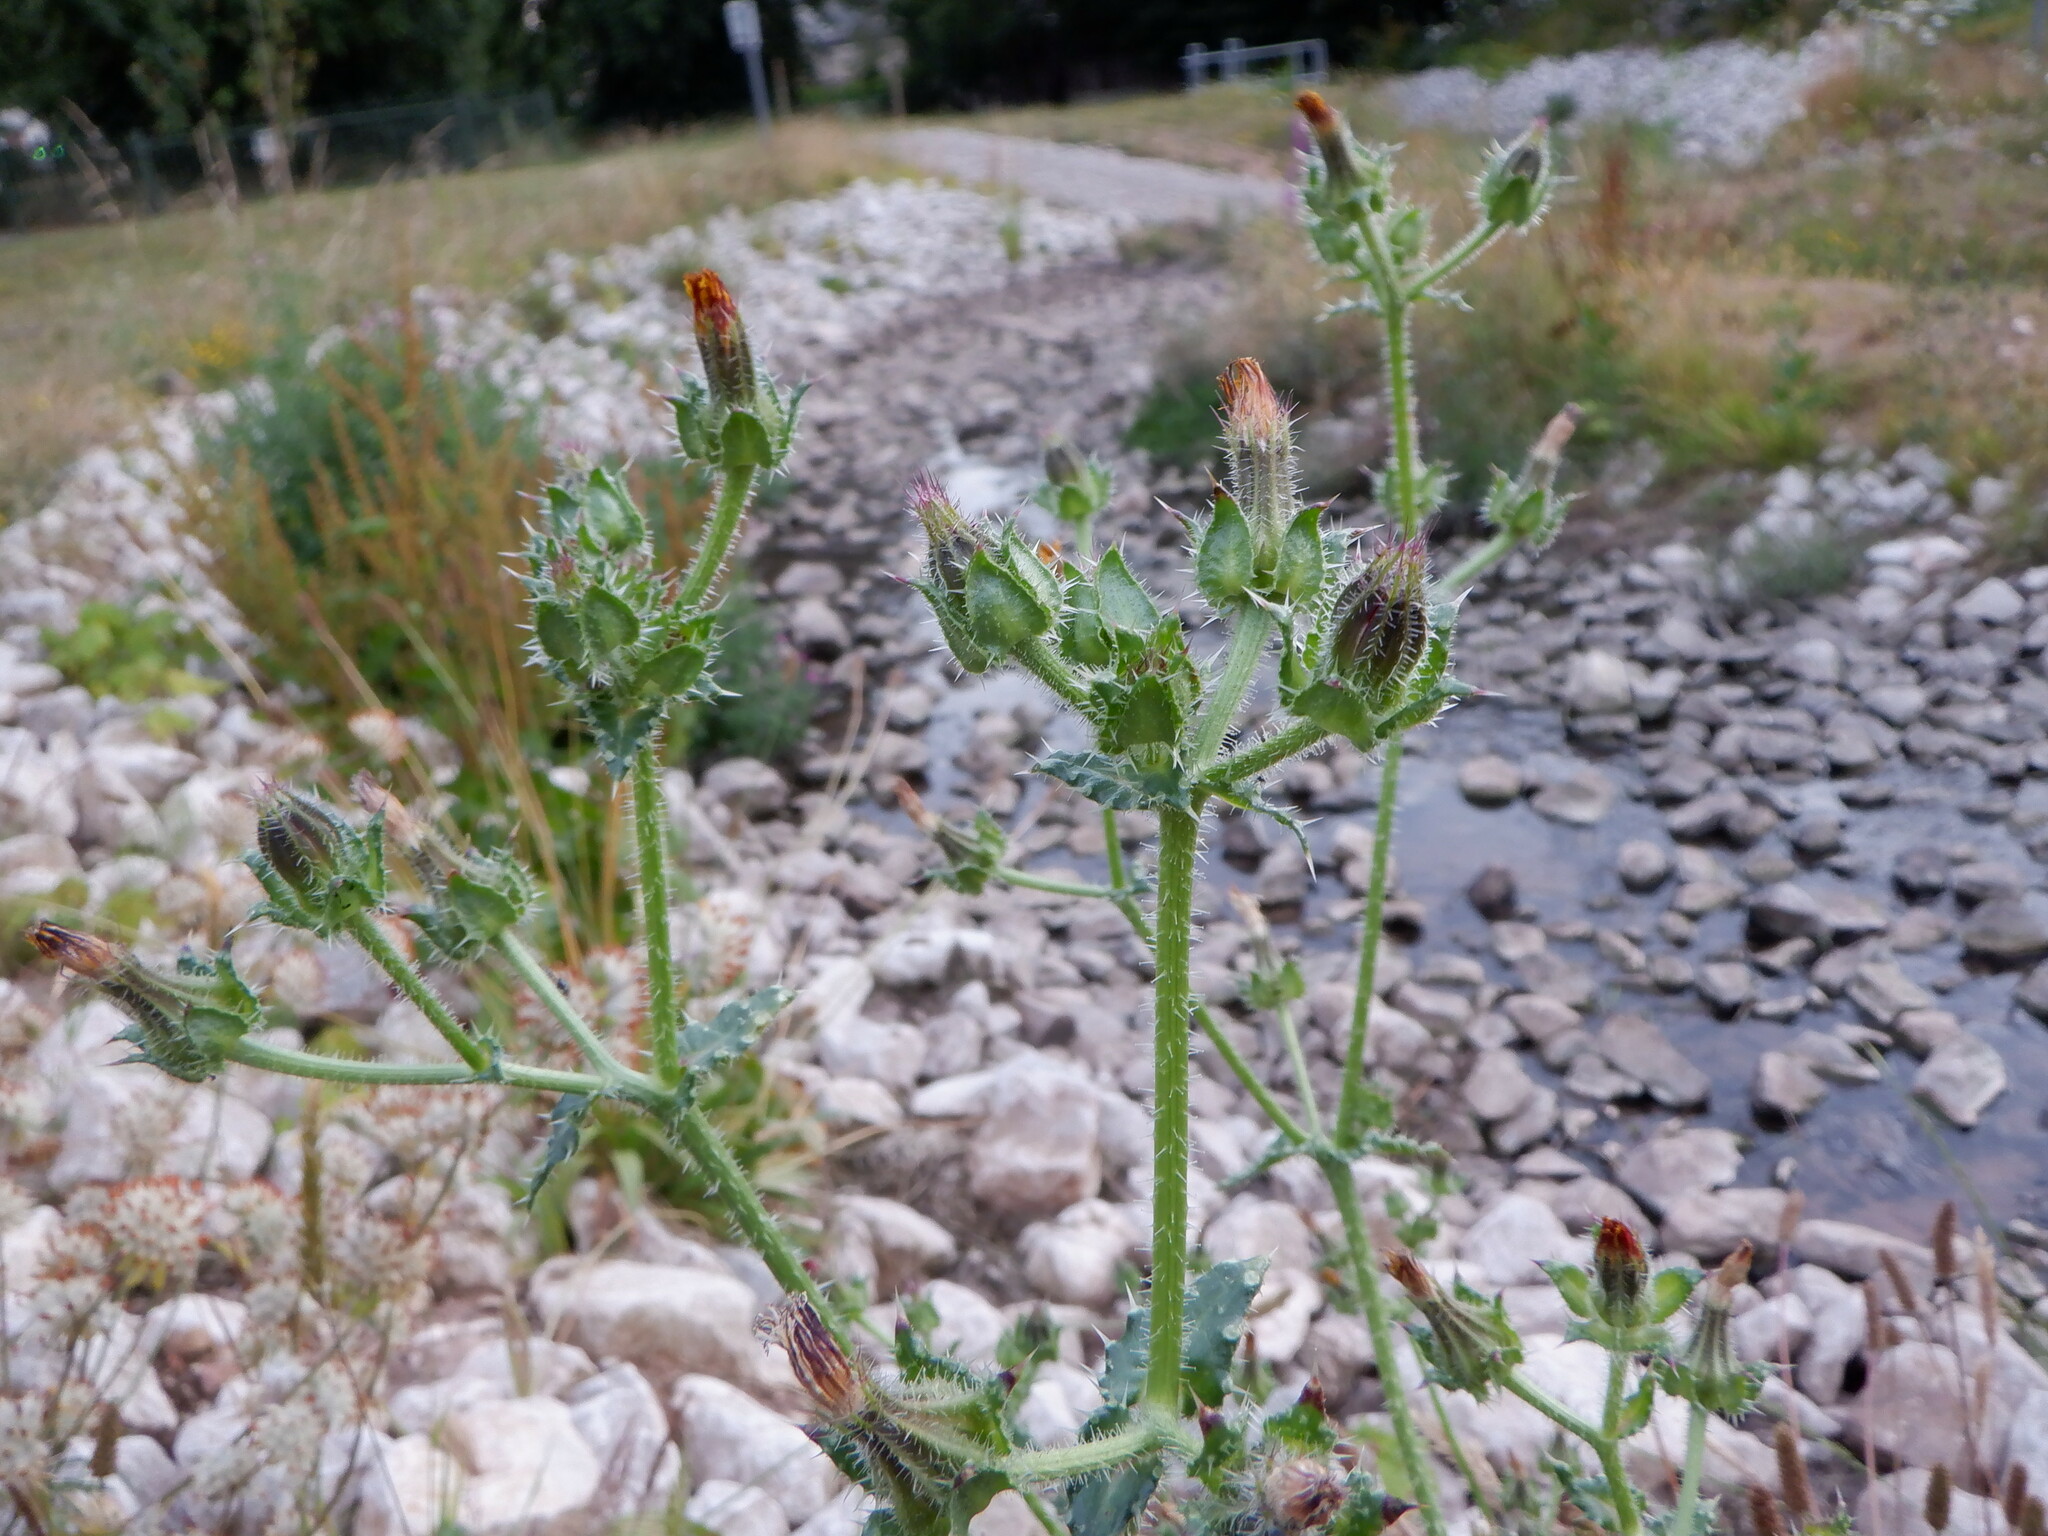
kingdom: Plantae
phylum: Tracheophyta
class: Magnoliopsida
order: Asterales
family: Asteraceae
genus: Helminthotheca
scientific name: Helminthotheca echioides
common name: Ox-tongue
